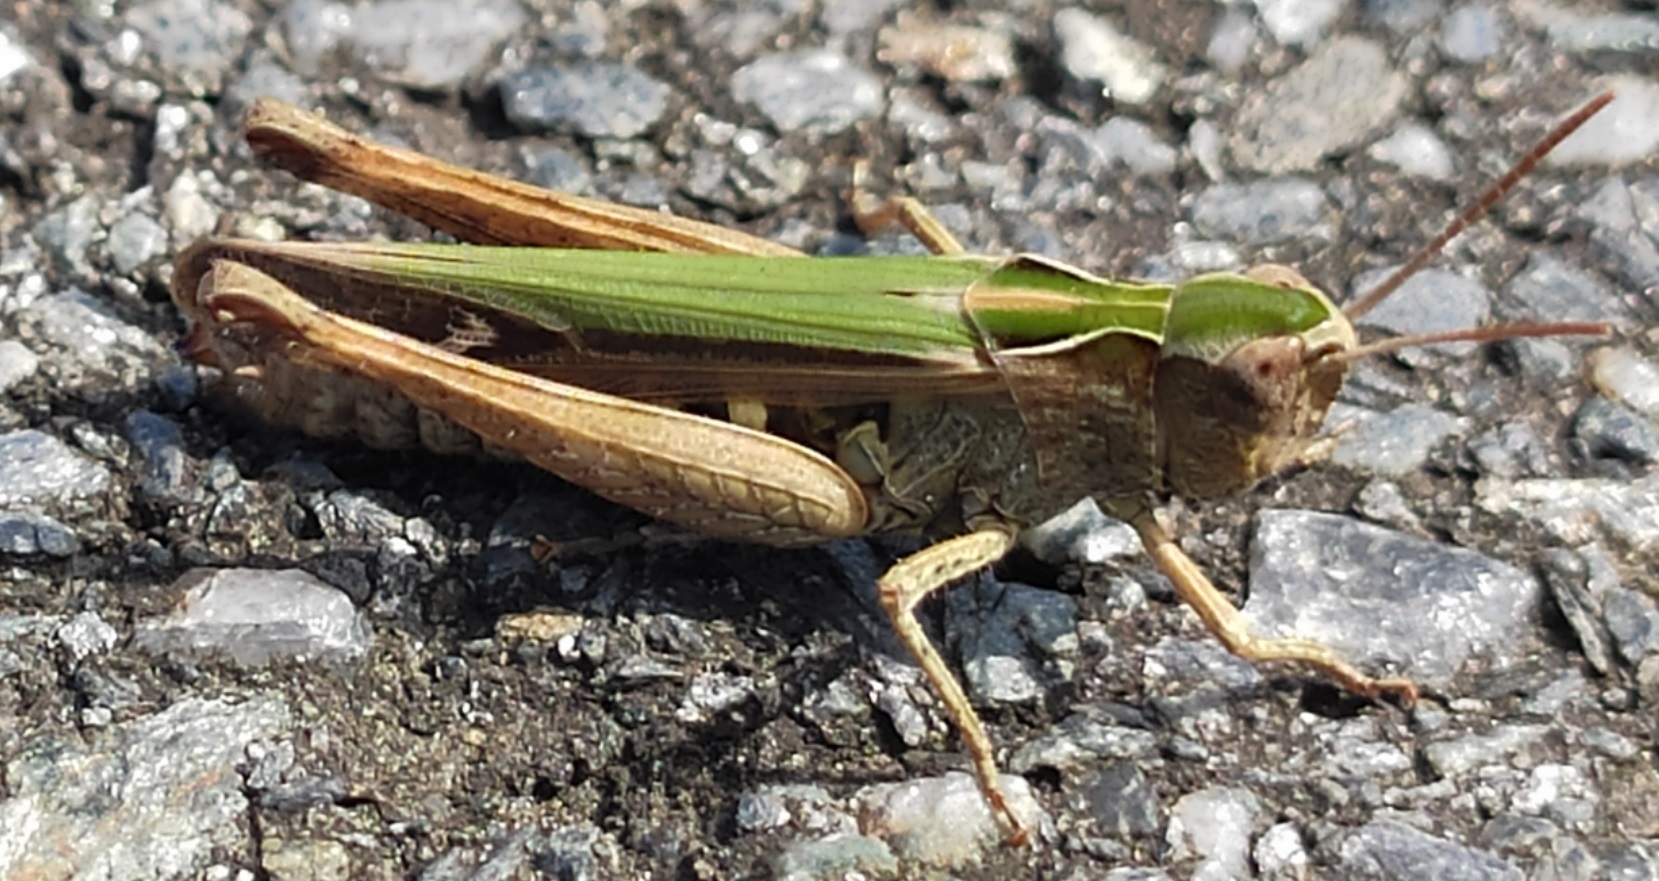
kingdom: Animalia
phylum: Arthropoda
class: Insecta
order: Orthoptera
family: Acrididae
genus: Omocestus
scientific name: Omocestus rufipes
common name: Woodland grasshopper
